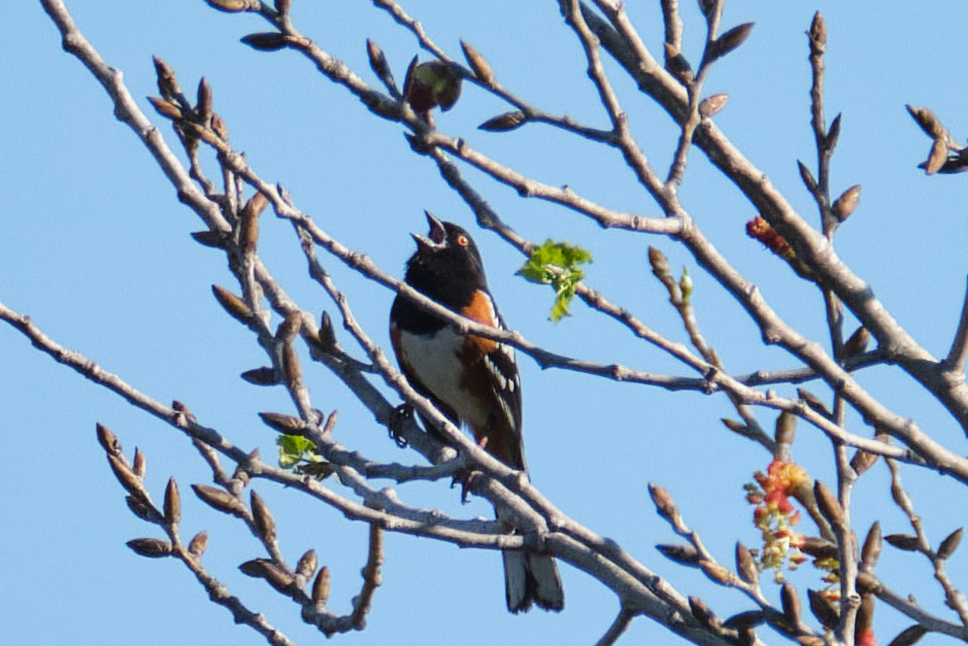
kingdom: Animalia
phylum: Chordata
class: Aves
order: Passeriformes
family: Passerellidae
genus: Pipilo
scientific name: Pipilo maculatus
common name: Spotted towhee
